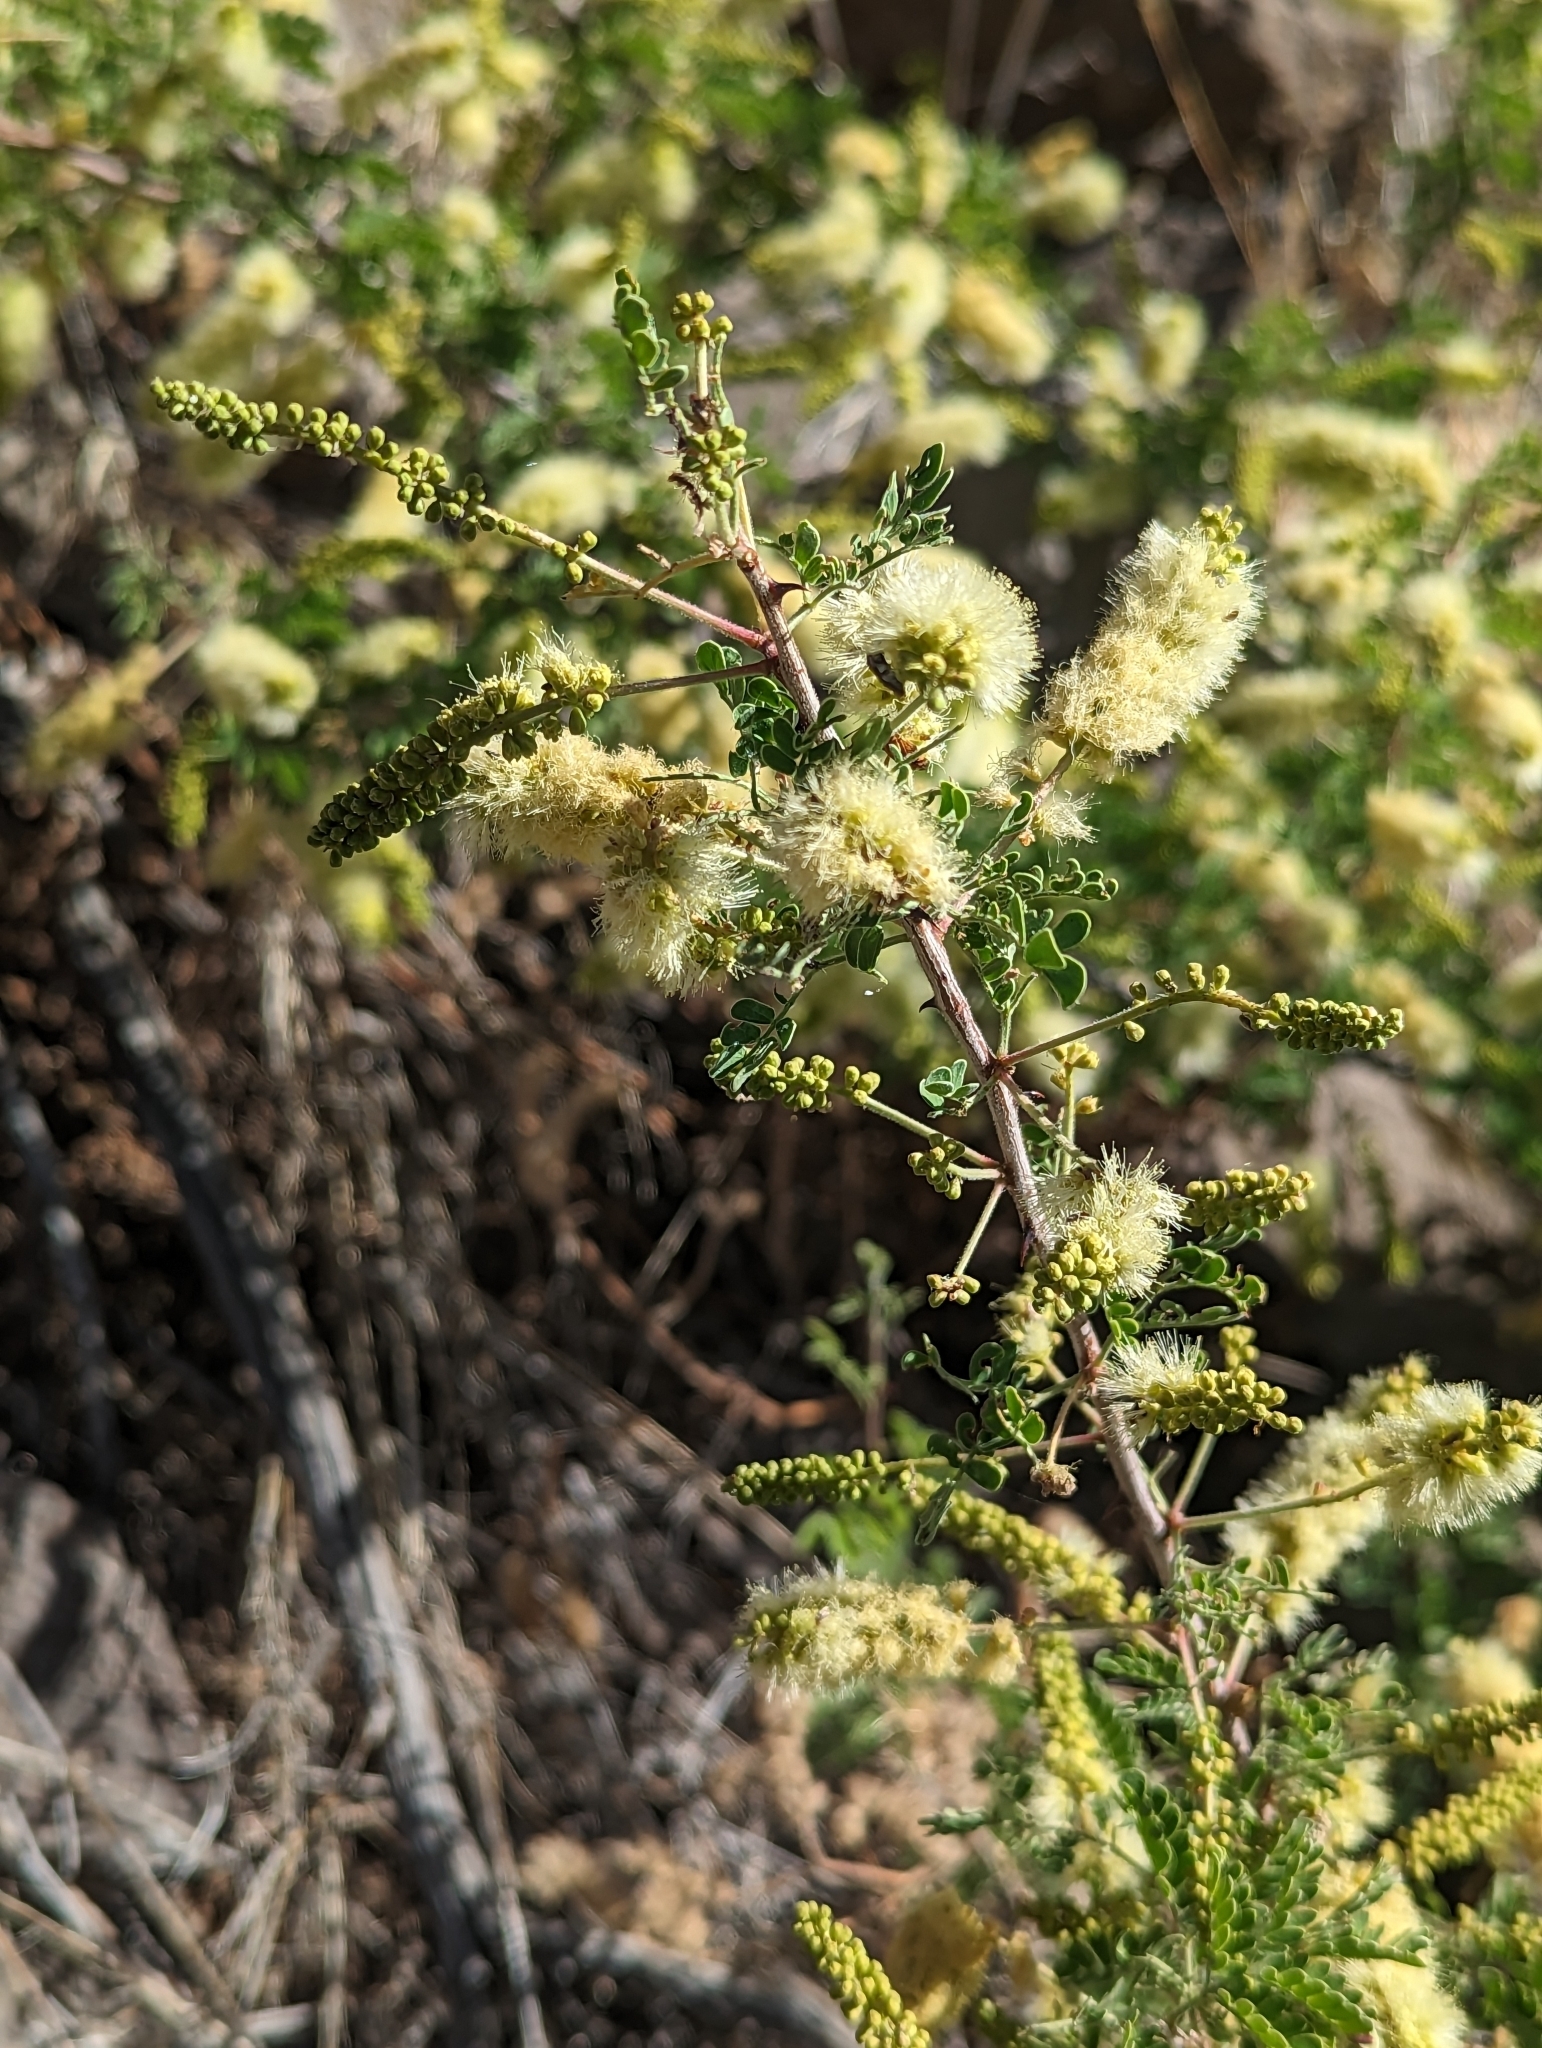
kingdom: Plantae
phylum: Tracheophyta
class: Magnoliopsida
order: Fabales
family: Fabaceae
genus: Senegalia
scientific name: Senegalia greggii
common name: Texas-mimosa
